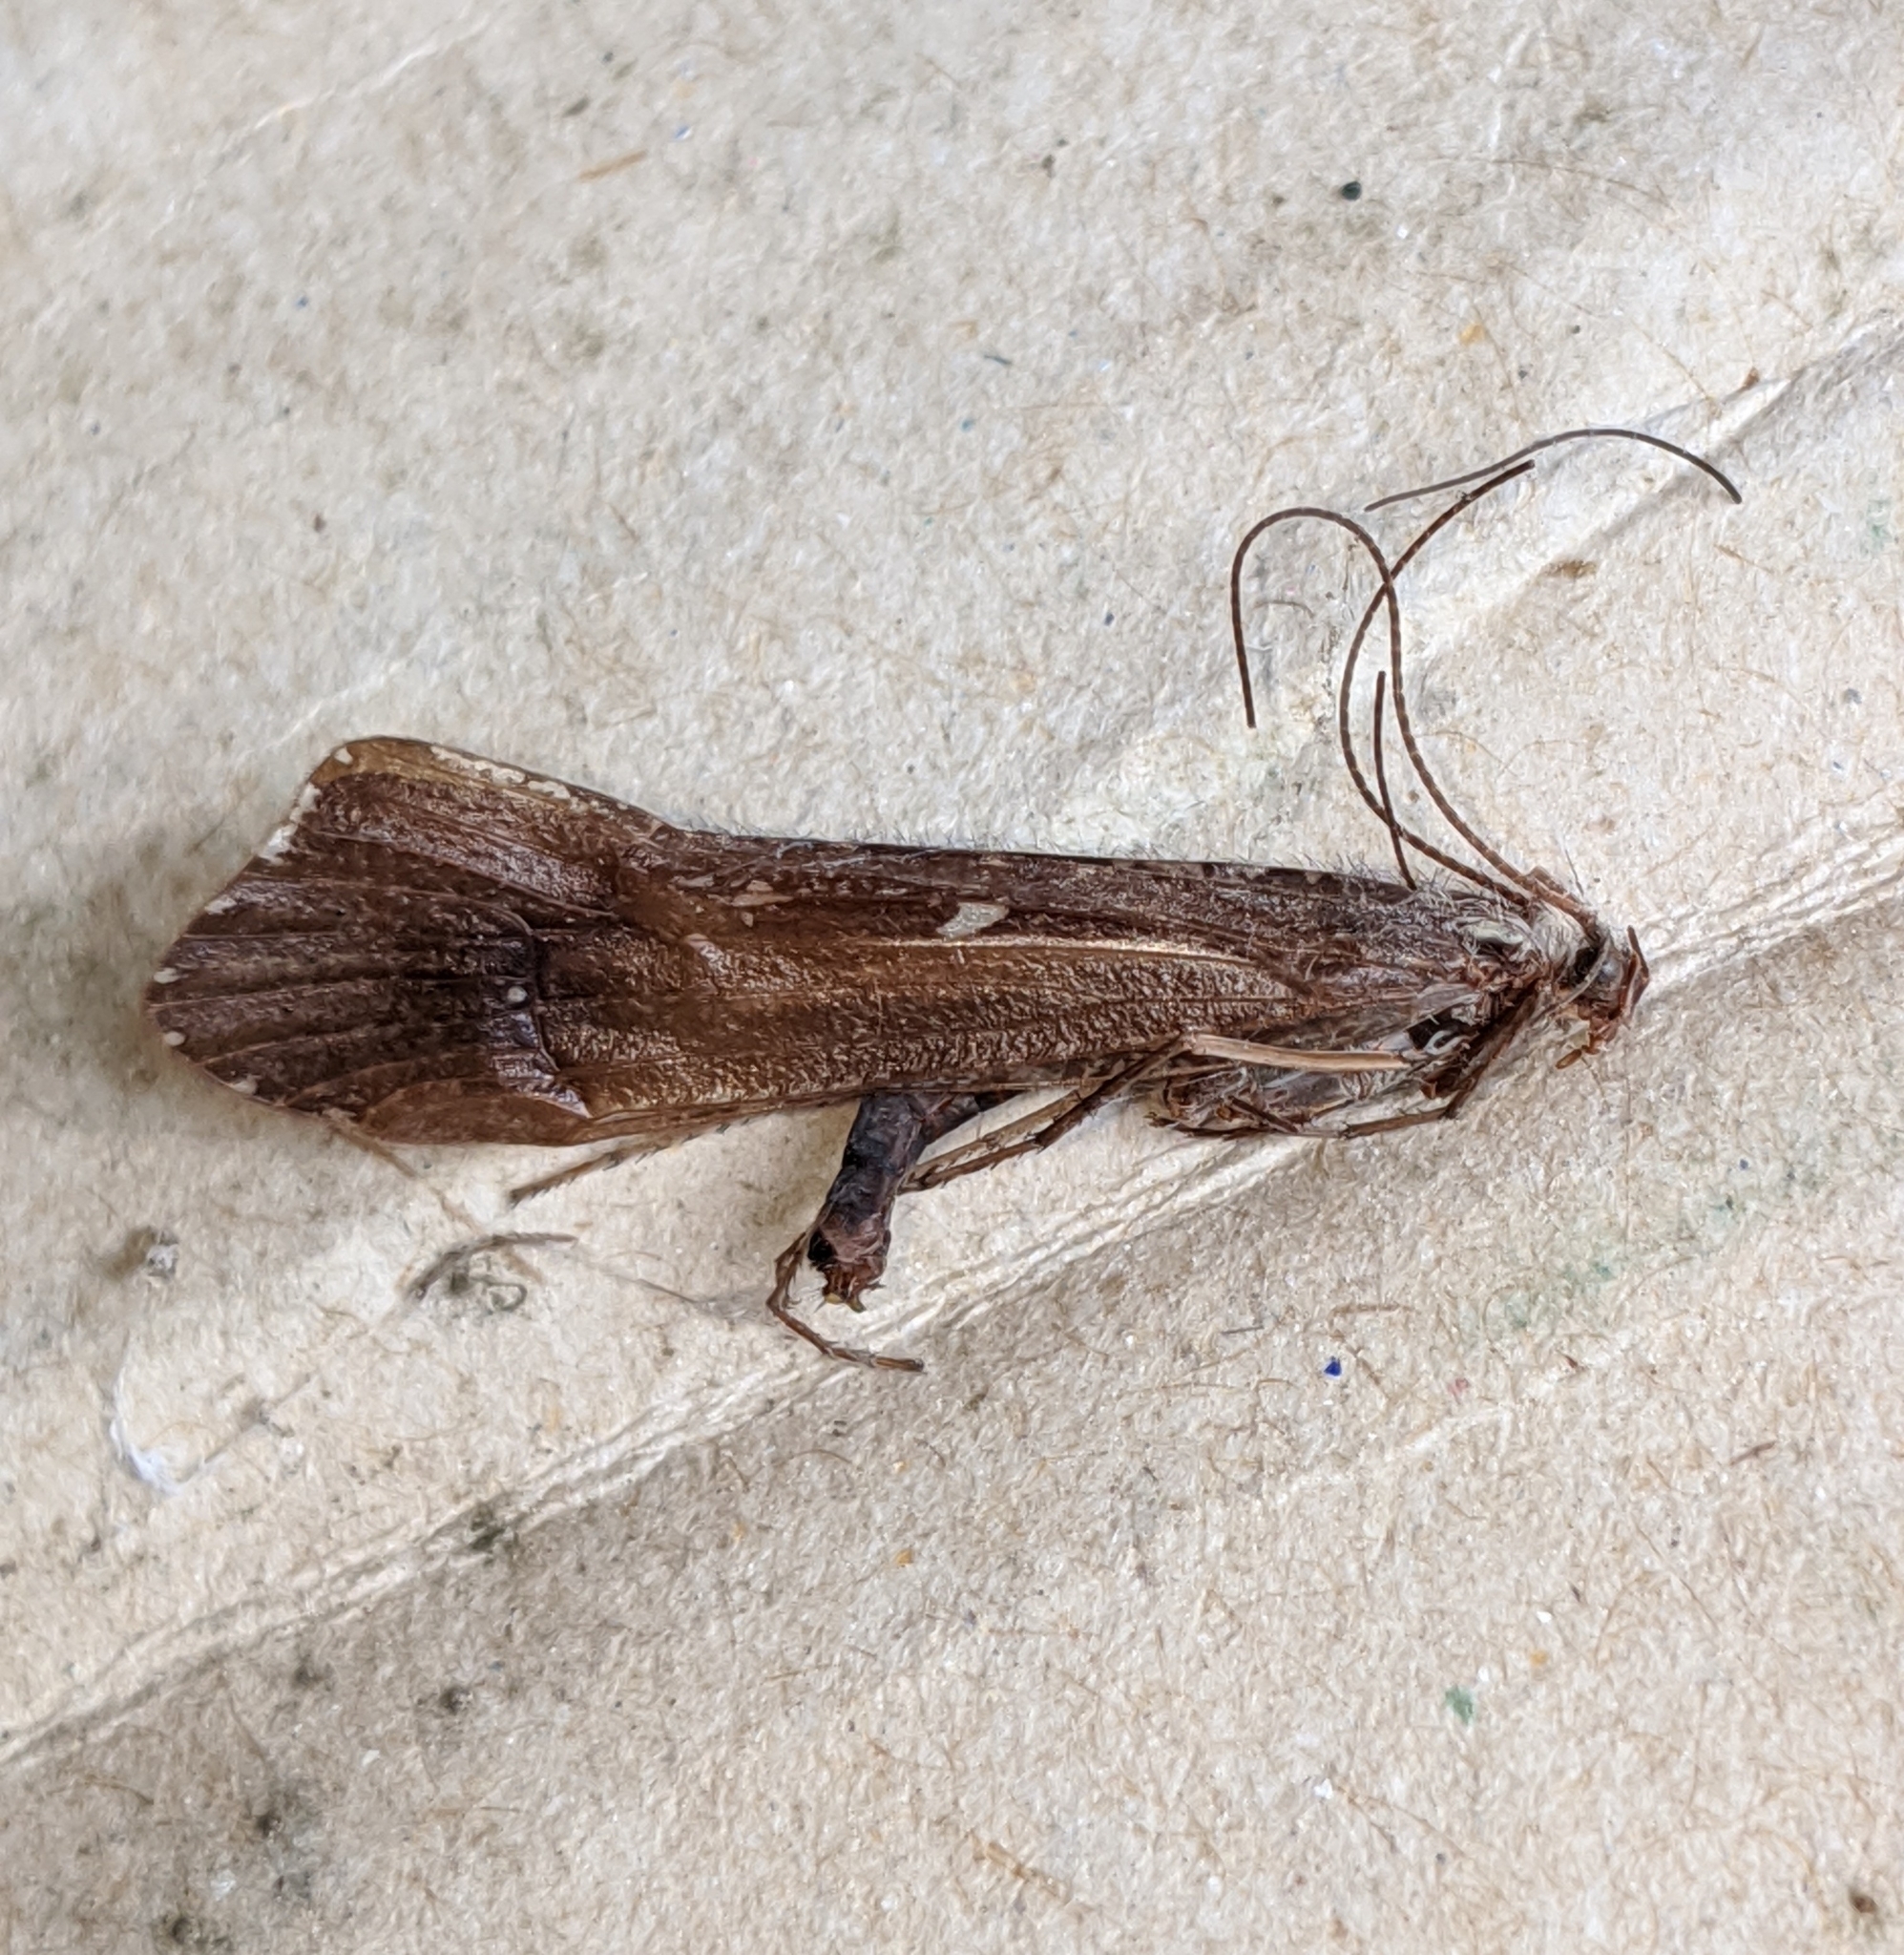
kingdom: Animalia
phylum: Arthropoda
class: Insecta
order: Trichoptera
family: Limnephilidae
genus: Glyphopsyche
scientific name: Glyphopsyche irrorata
